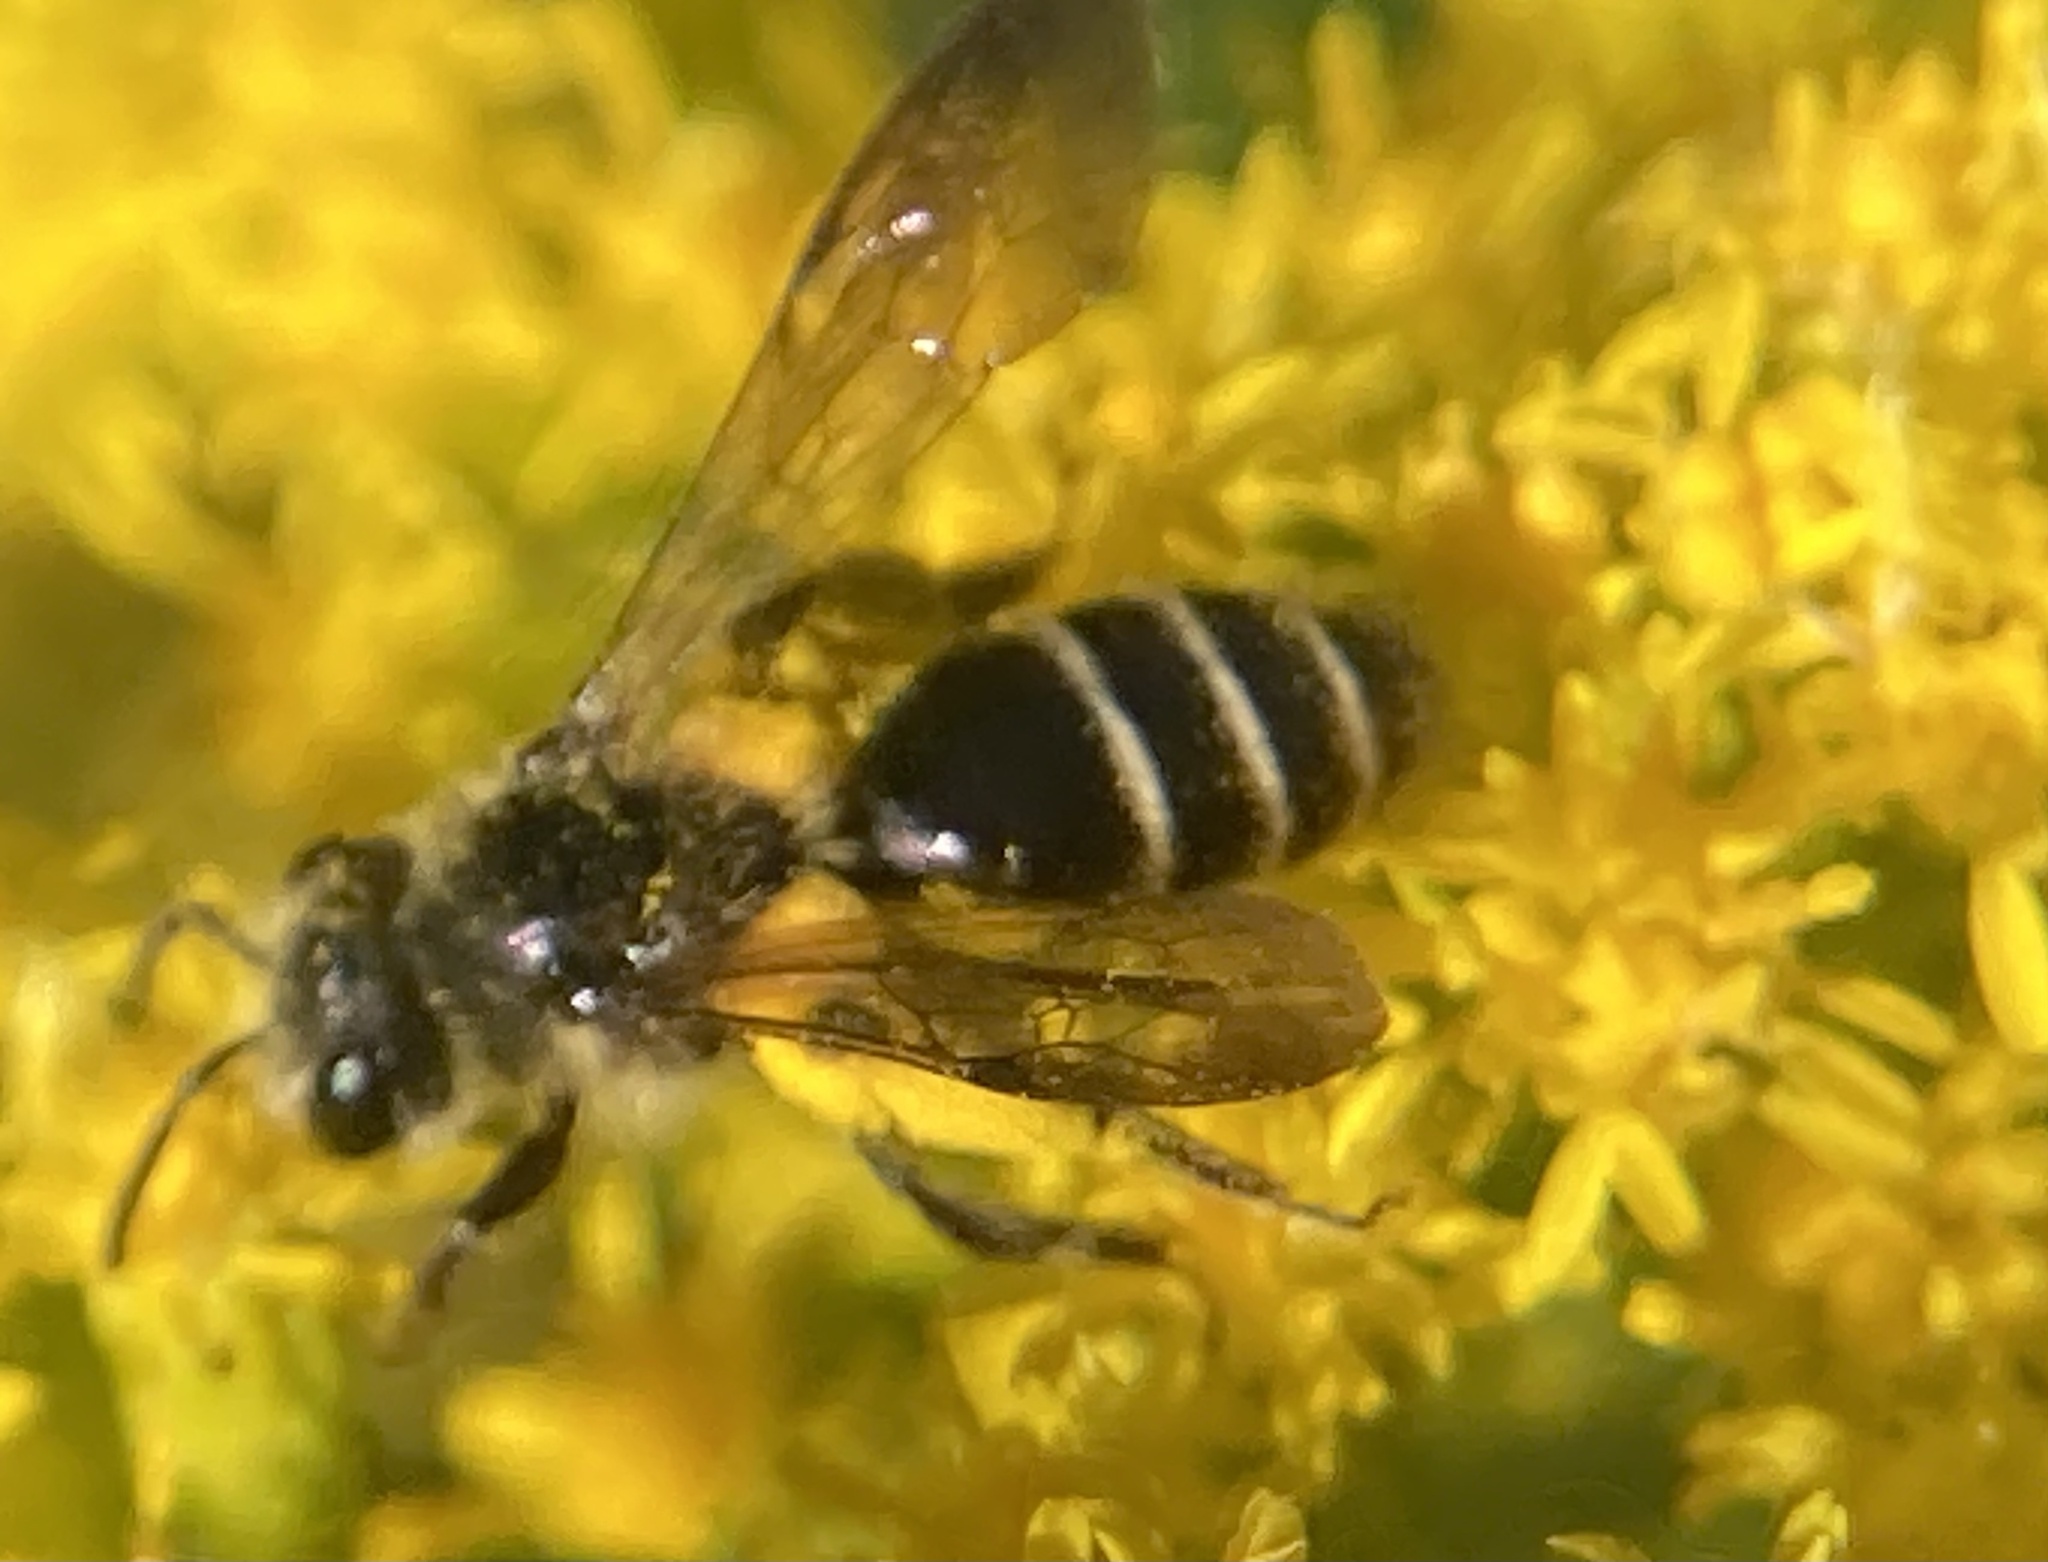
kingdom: Animalia
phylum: Arthropoda
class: Insecta
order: Hymenoptera
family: Andrenidae
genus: Andrena
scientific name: Andrena nubecula
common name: Cloudy-winged mining bee
